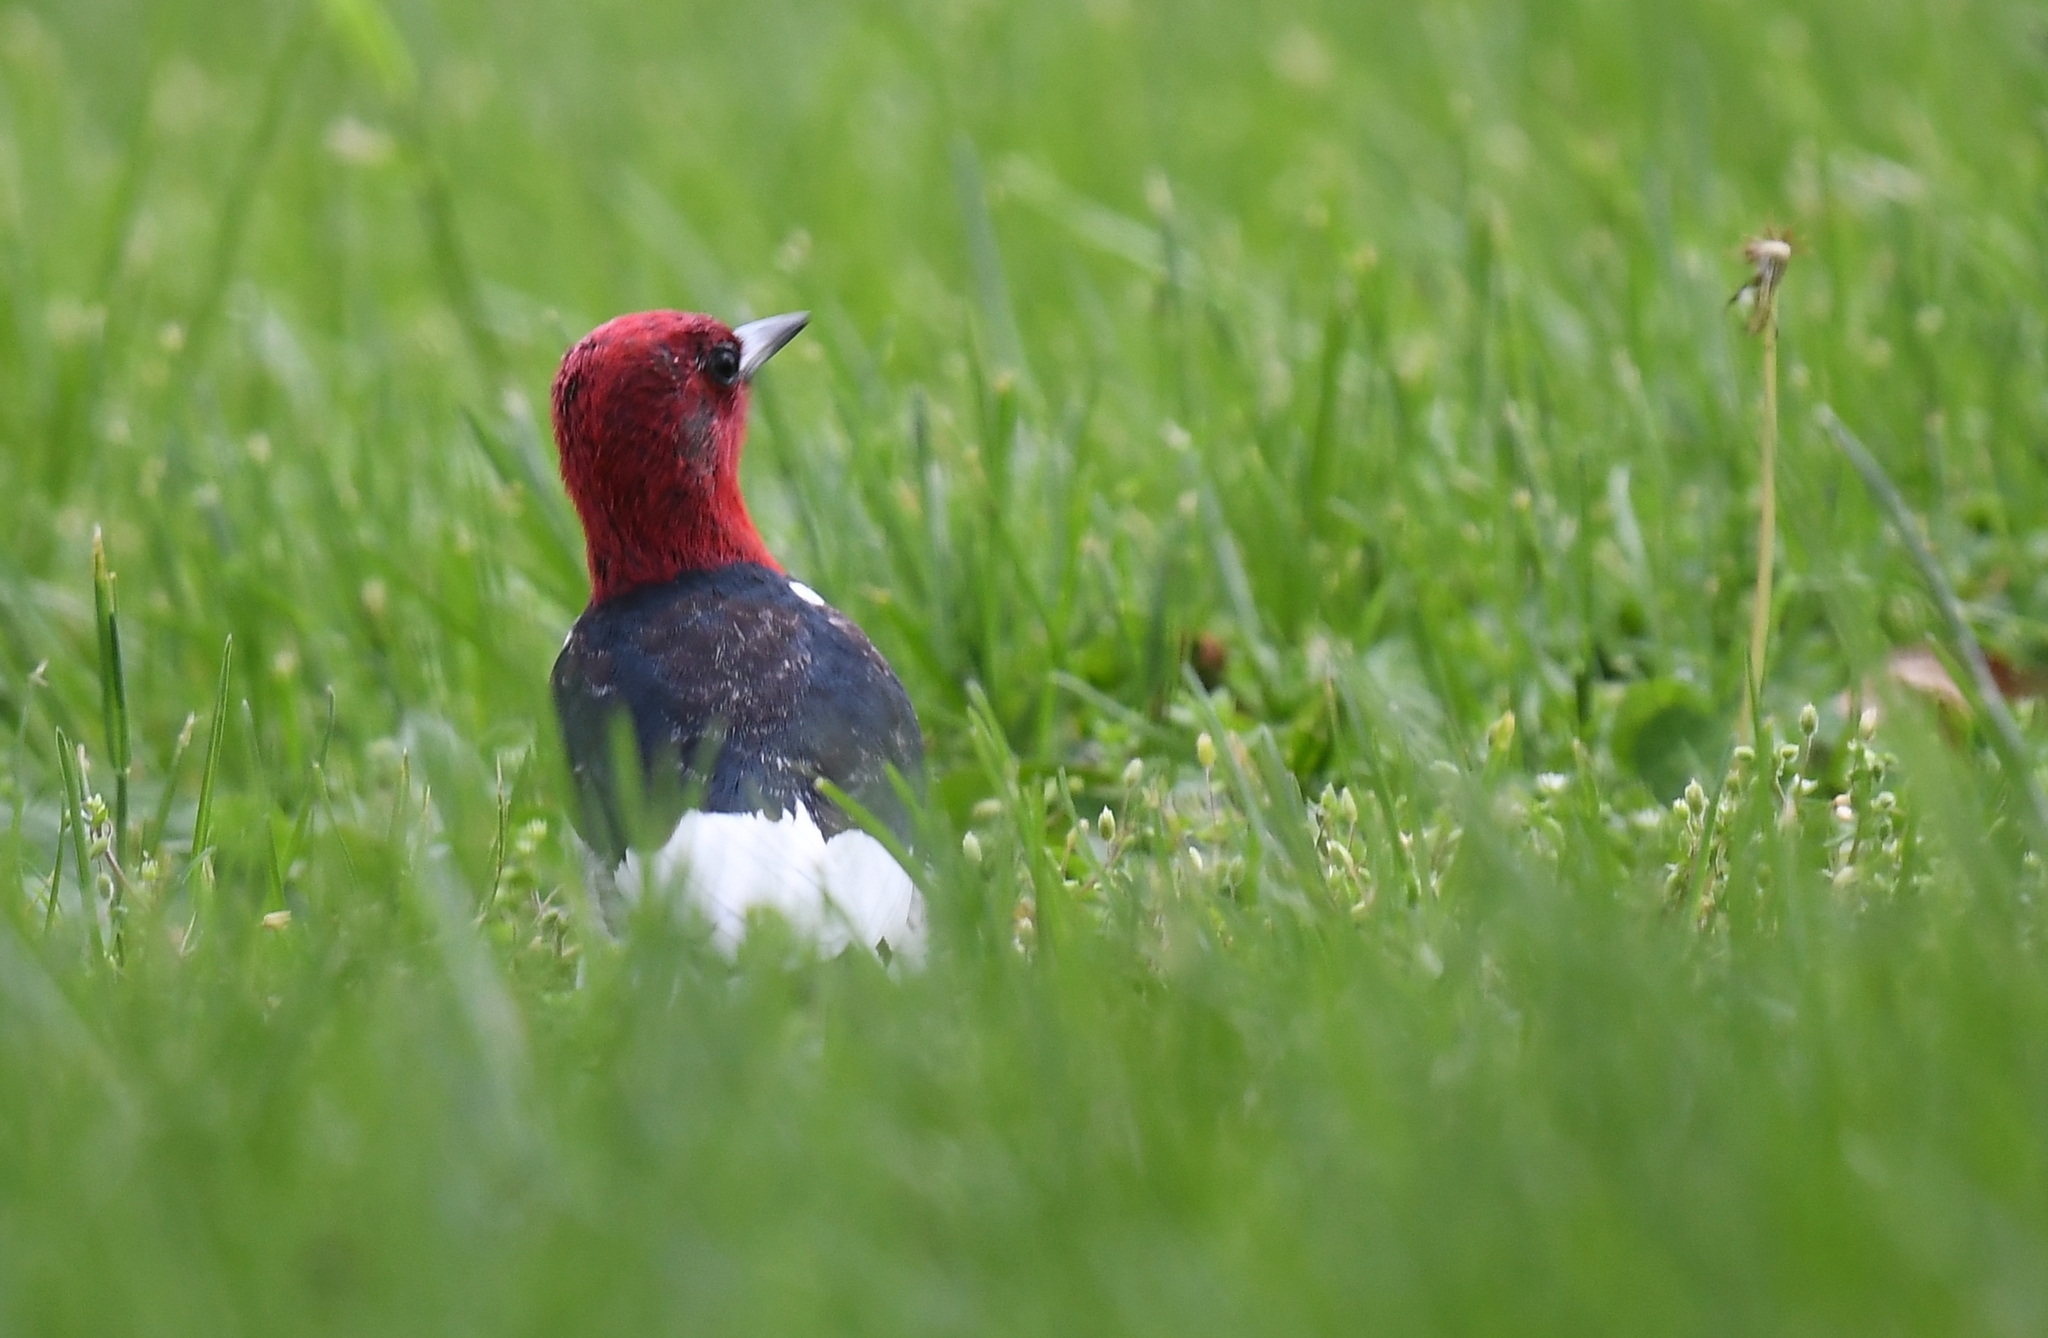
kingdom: Animalia
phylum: Chordata
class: Aves
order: Piciformes
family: Picidae
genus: Melanerpes
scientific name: Melanerpes erythrocephalus
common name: Red-headed woodpecker
